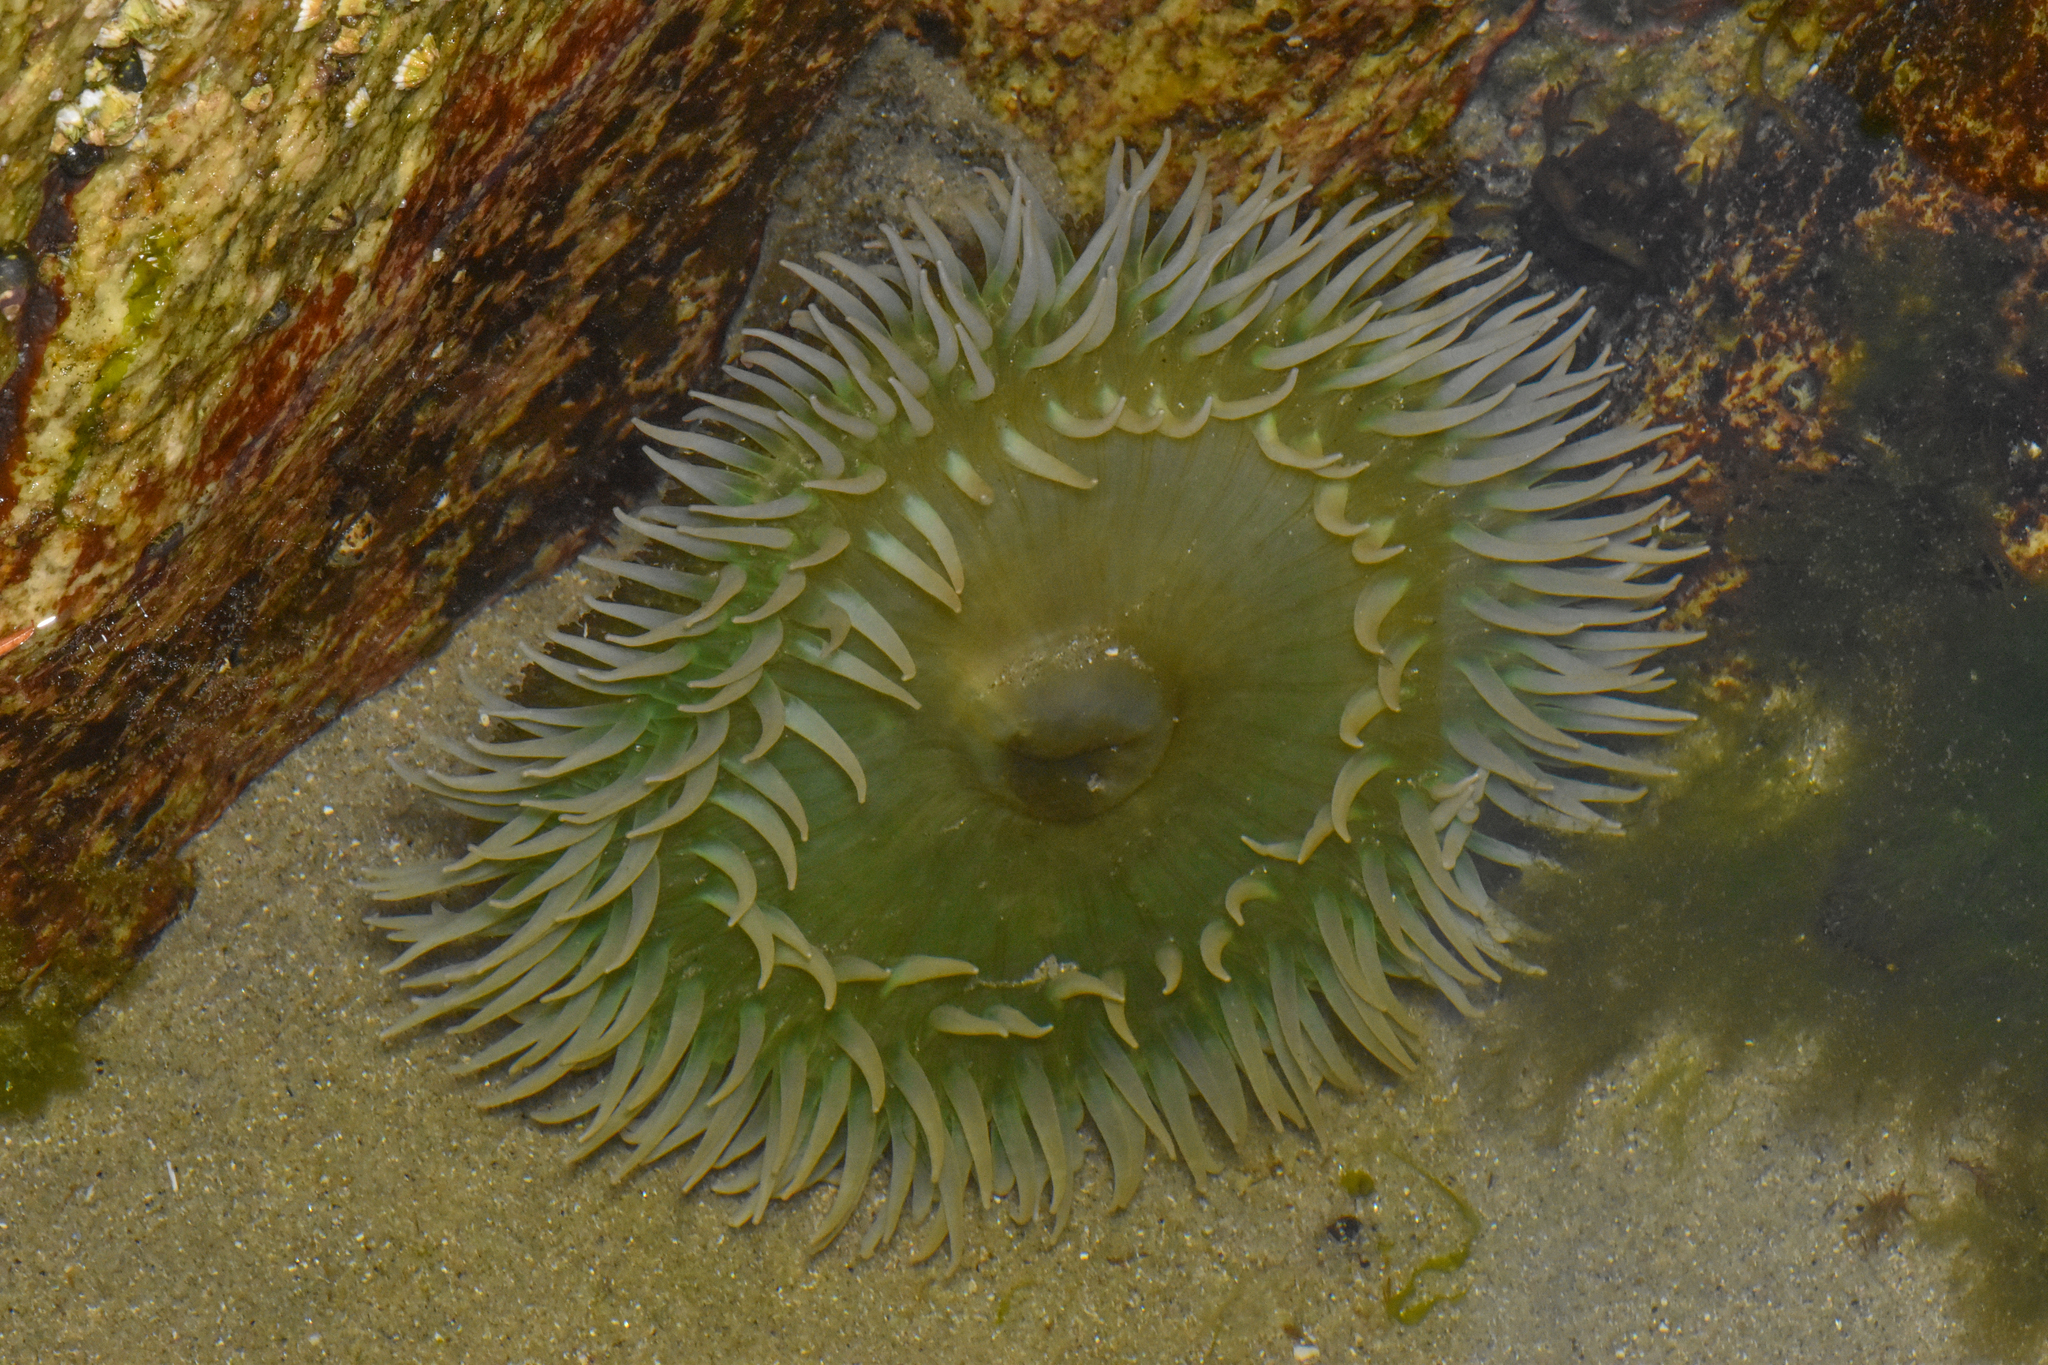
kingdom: Animalia
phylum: Cnidaria
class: Anthozoa
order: Actiniaria
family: Actiniidae
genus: Anthopleura
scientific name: Anthopleura xanthogrammica
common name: Giant green anemone
